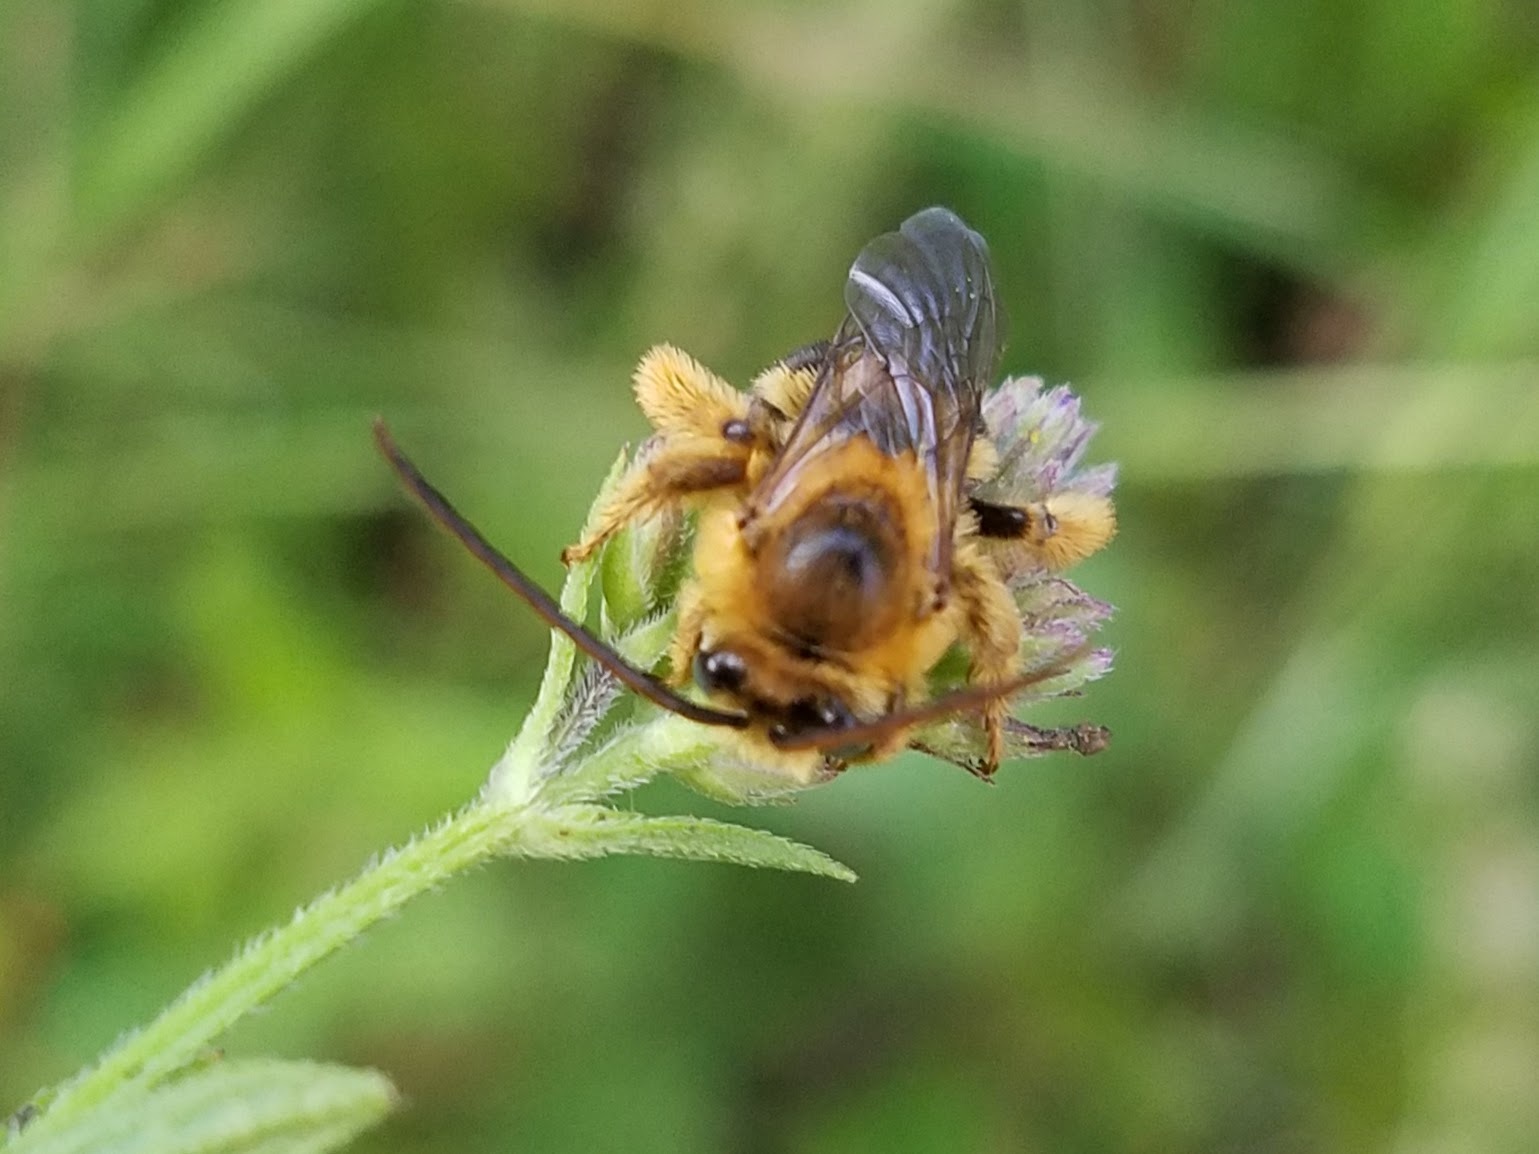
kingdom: Animalia
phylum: Arthropoda
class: Insecta
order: Hymenoptera
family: Apidae
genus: Melissodes
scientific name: Melissodes dentiventris
